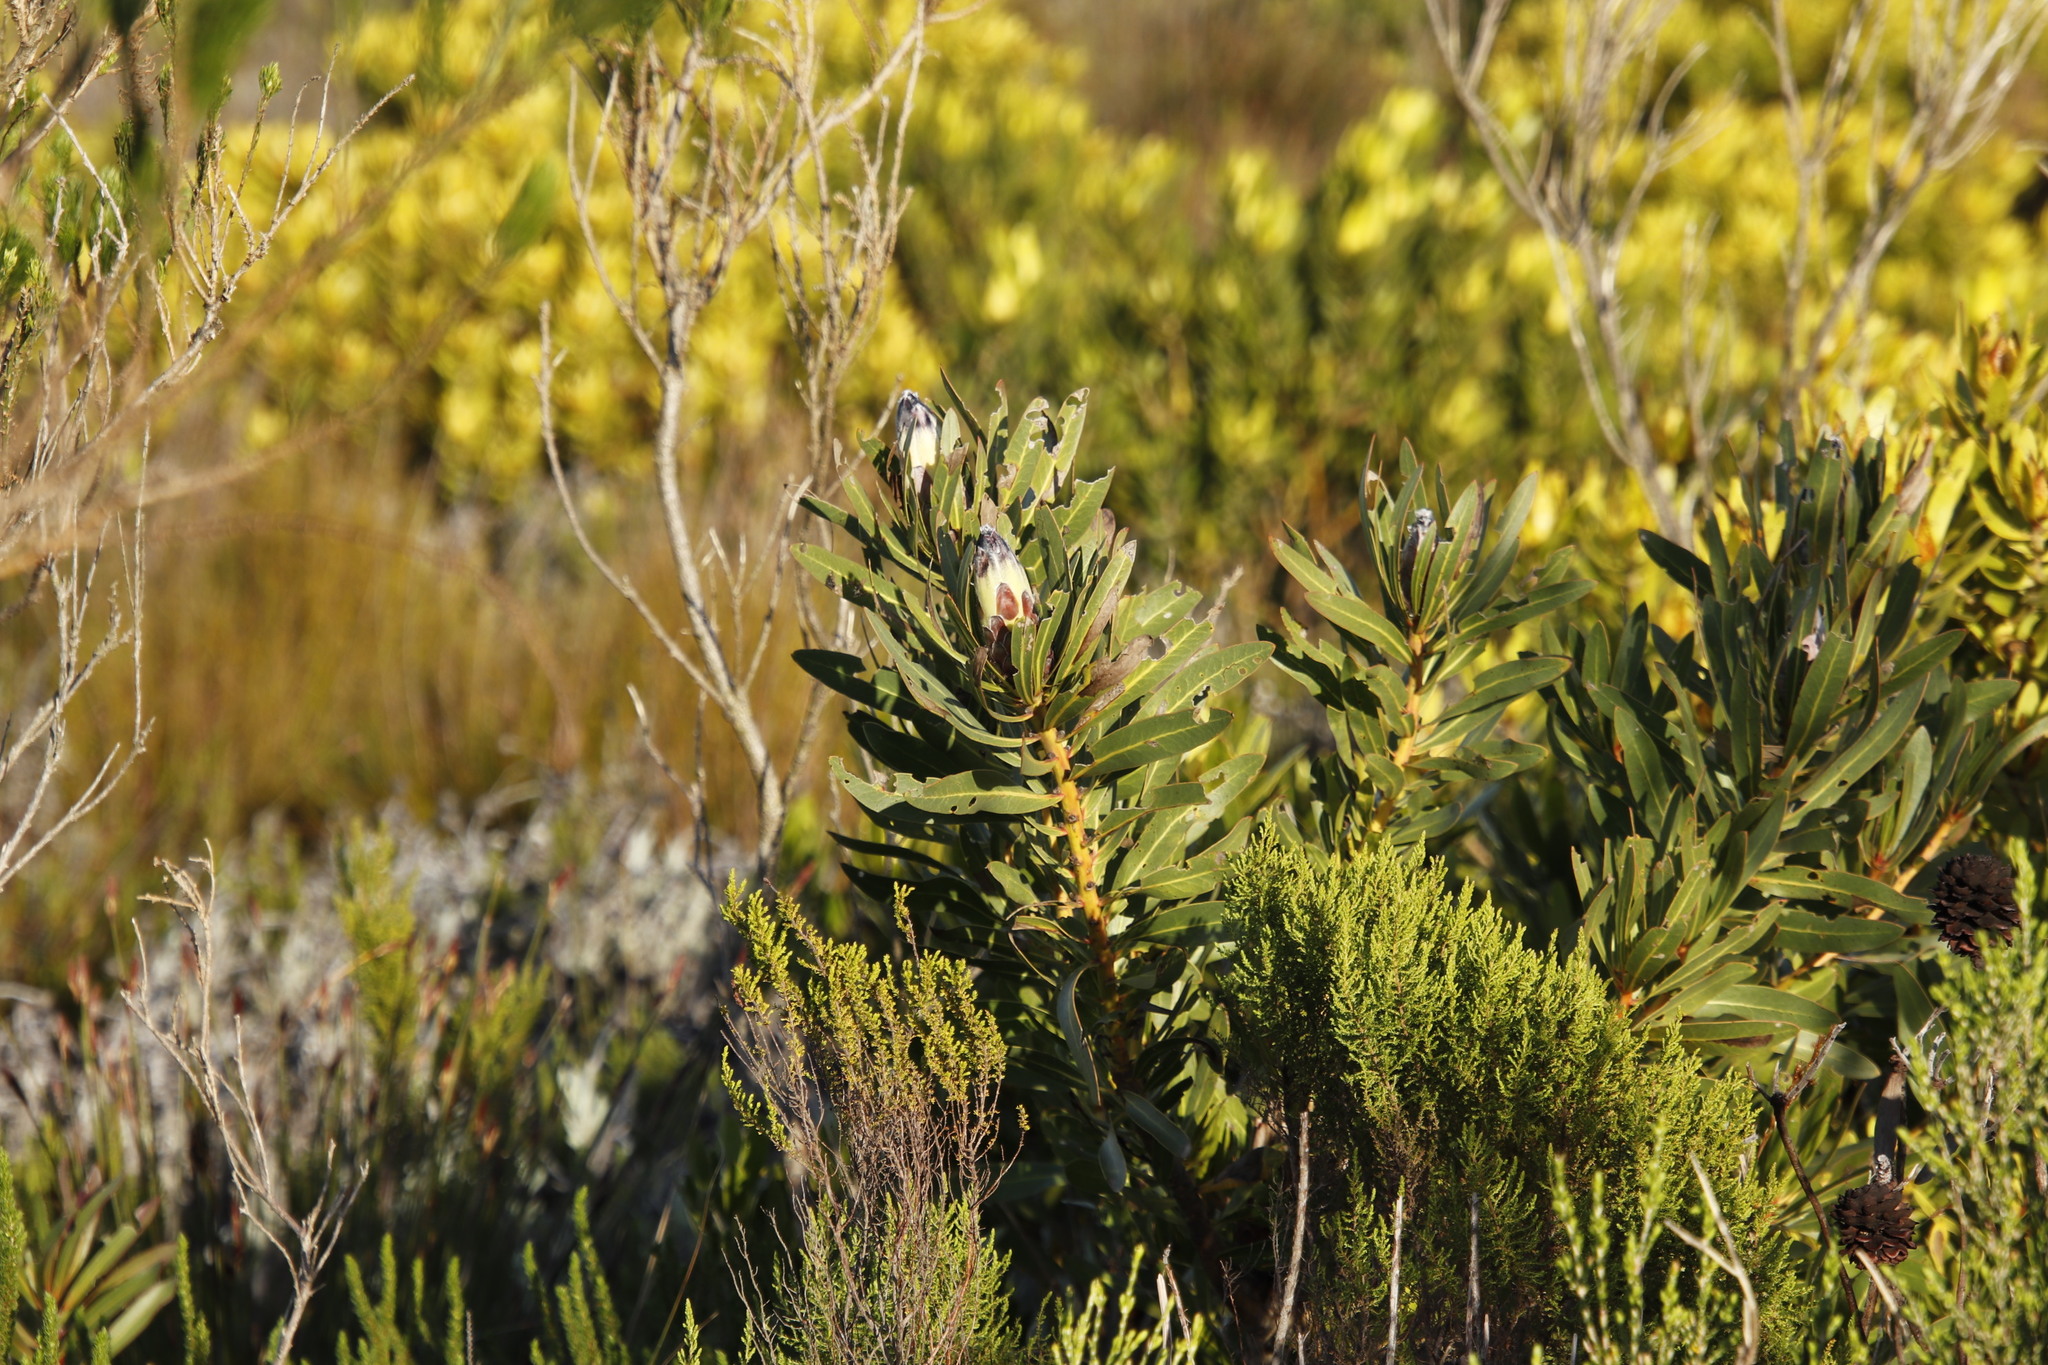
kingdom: Plantae
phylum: Tracheophyta
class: Magnoliopsida
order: Proteales
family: Proteaceae
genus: Protea
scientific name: Protea lepidocarpodendron
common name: Black-bearded protea
